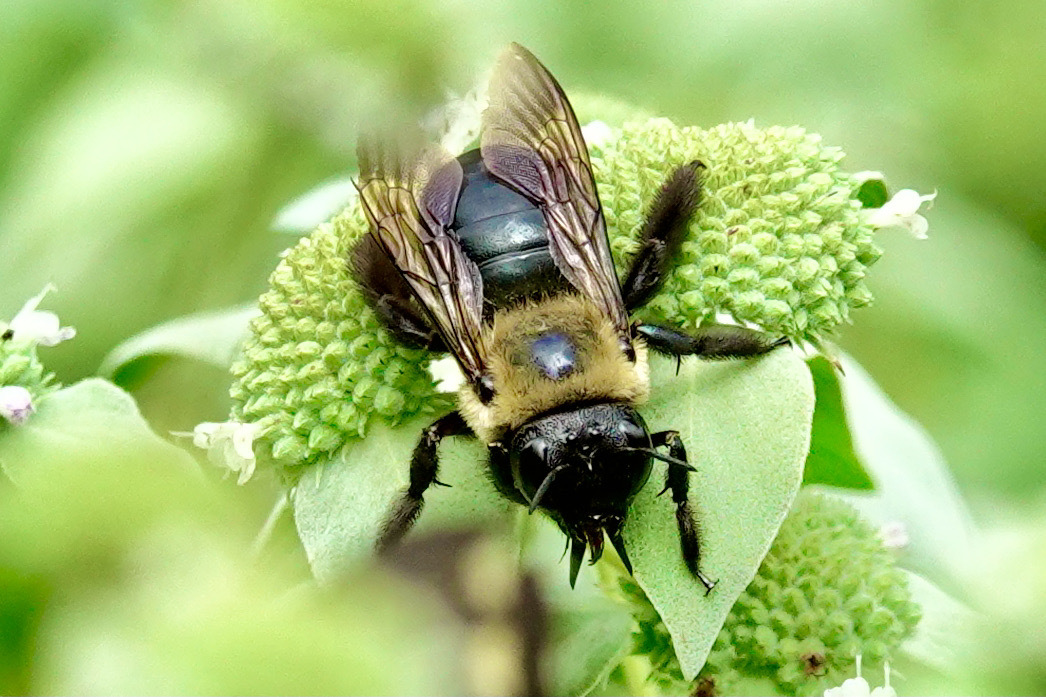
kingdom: Animalia
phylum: Arthropoda
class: Insecta
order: Hymenoptera
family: Apidae
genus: Xylocopa
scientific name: Xylocopa virginica
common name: Carpenter bee
